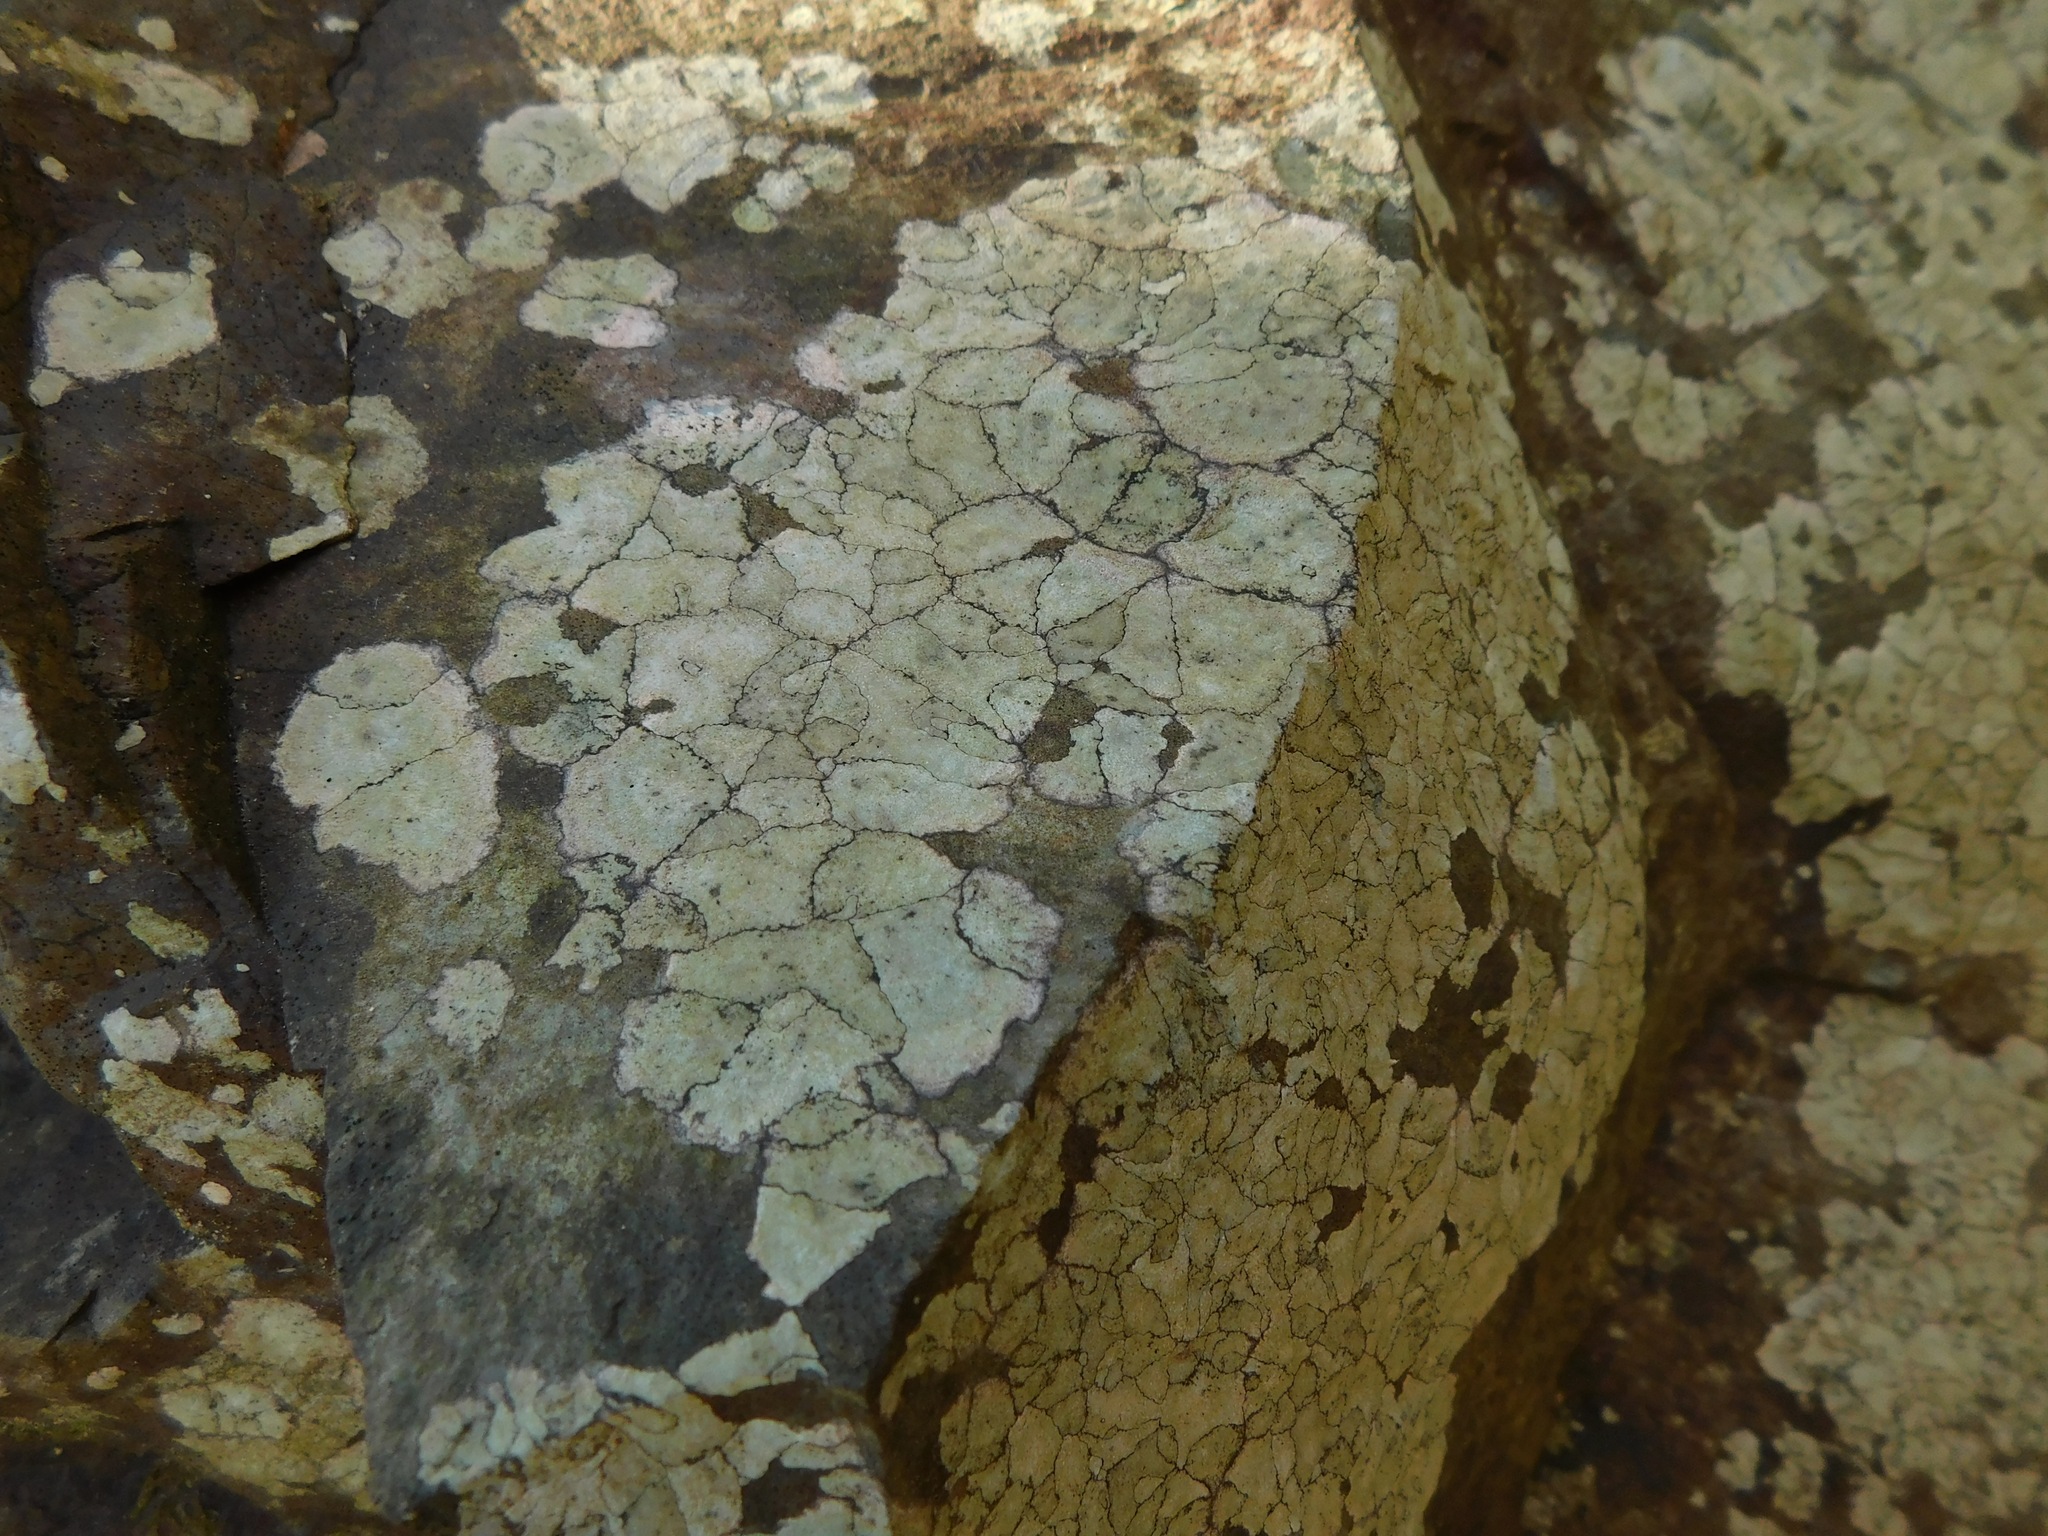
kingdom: Fungi
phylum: Ascomycota
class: Arthoniomycetes
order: Arthoniales
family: Roccellaceae
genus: Enterographa
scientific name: Enterographa hutchinsiae
